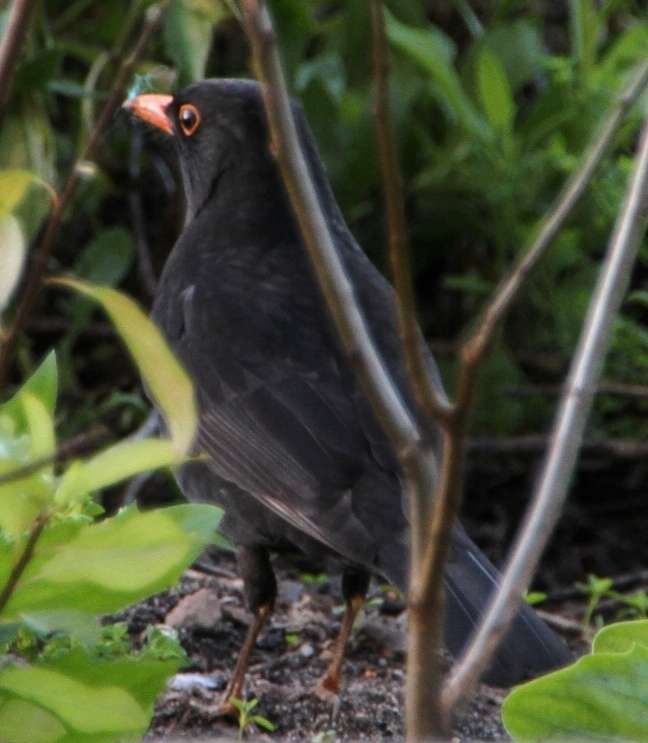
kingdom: Animalia
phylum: Chordata
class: Aves
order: Passeriformes
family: Turdidae
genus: Turdus
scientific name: Turdus merula
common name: Common blackbird
